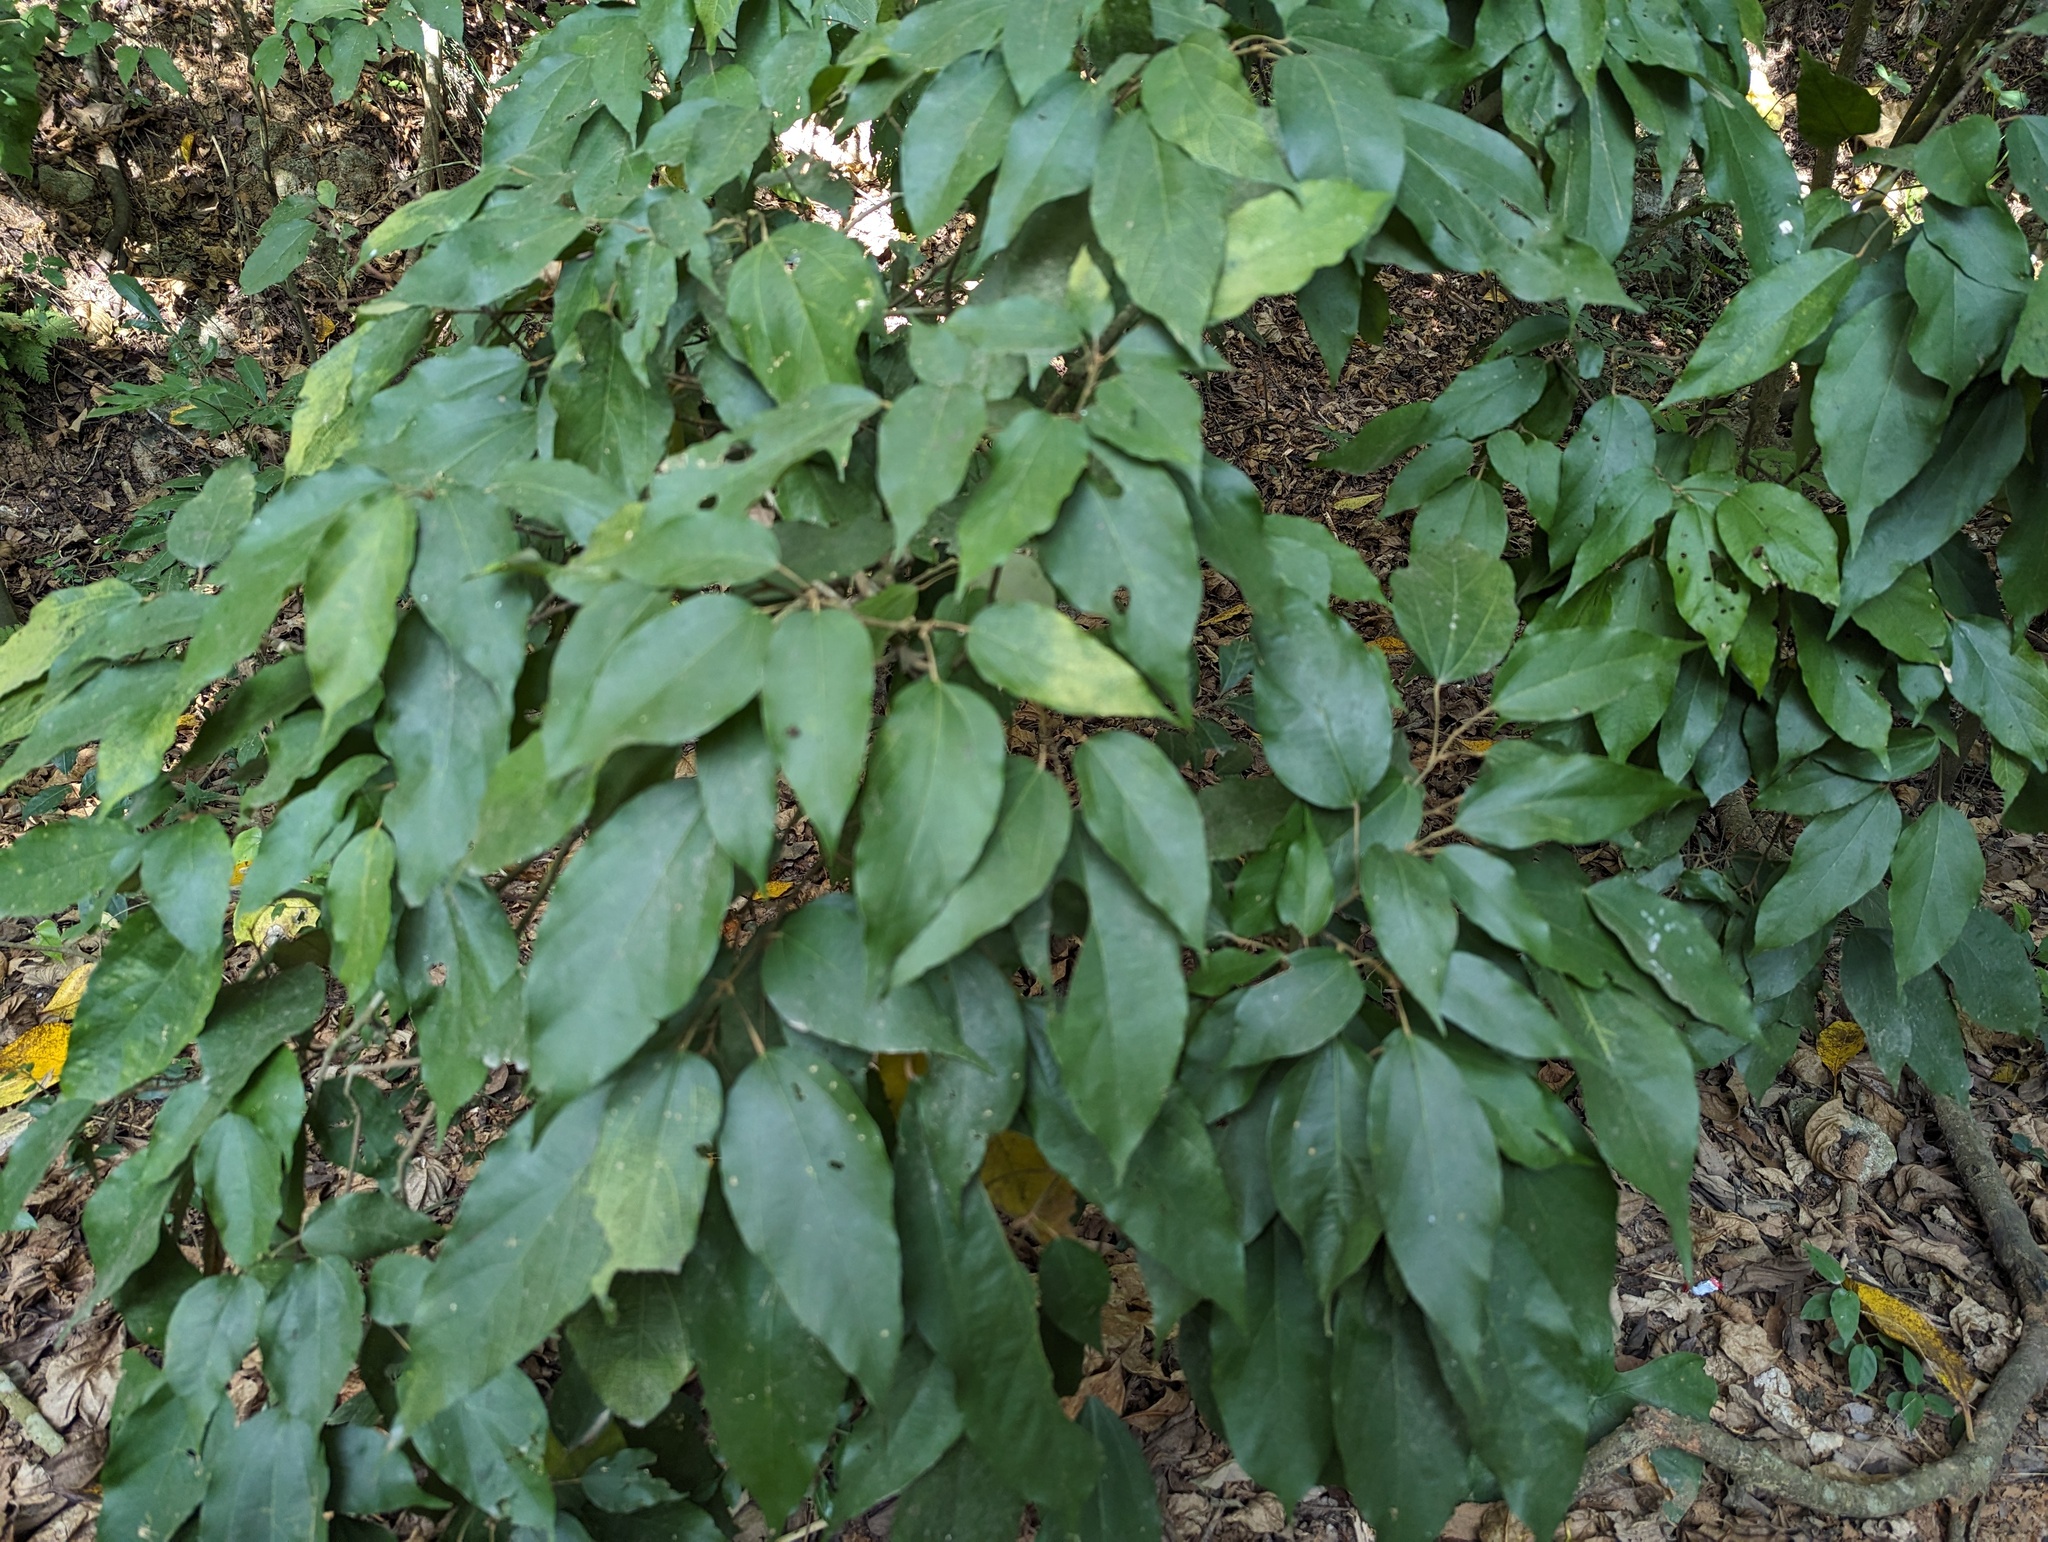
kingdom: Plantae
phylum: Tracheophyta
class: Magnoliopsida
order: Malpighiales
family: Euphorbiaceae
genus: Mallotus
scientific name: Mallotus philippensis
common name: Kamala tree
